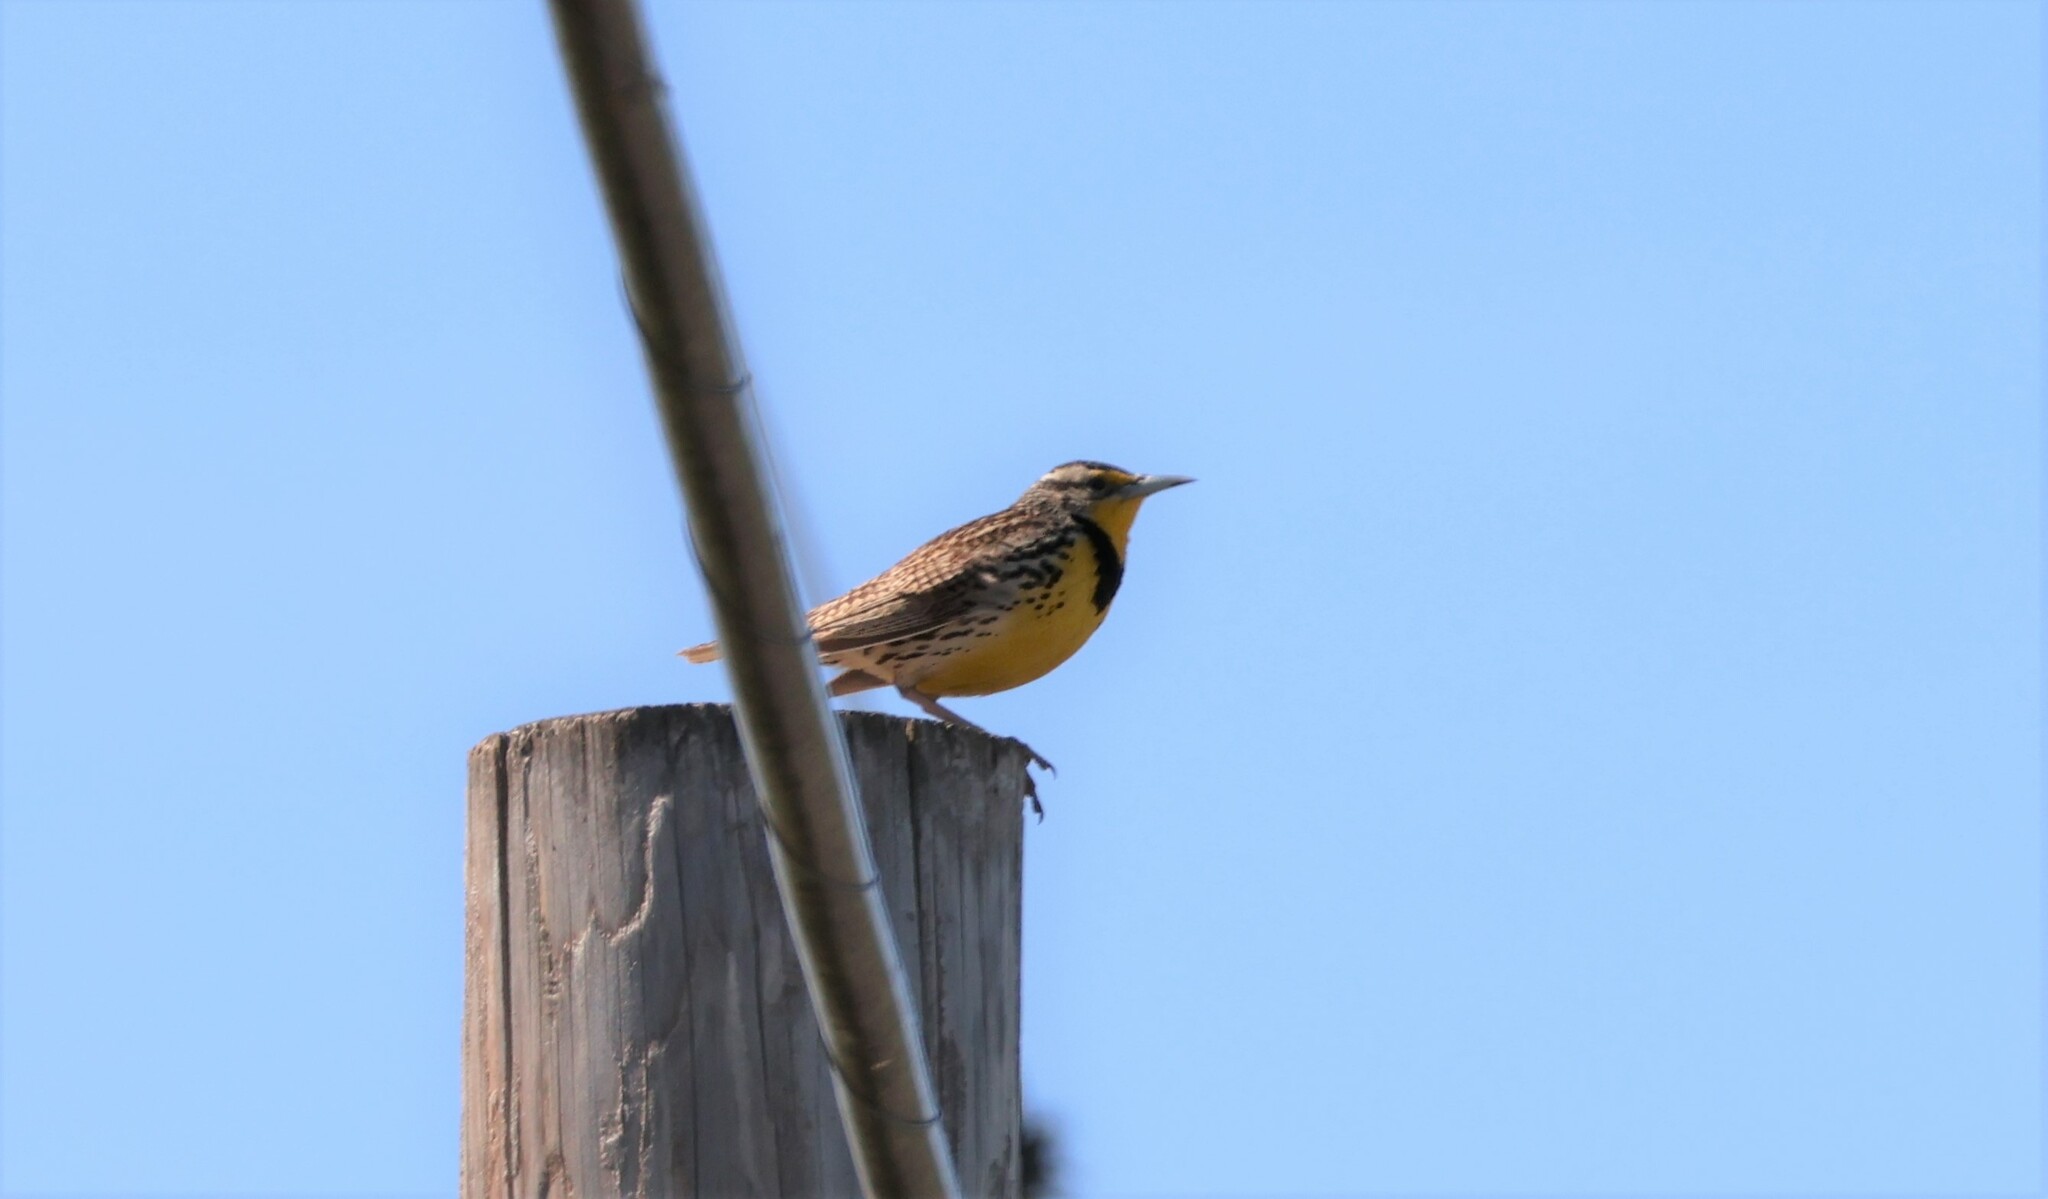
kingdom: Animalia
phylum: Chordata
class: Aves
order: Passeriformes
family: Icteridae
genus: Sturnella
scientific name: Sturnella neglecta
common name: Western meadowlark
